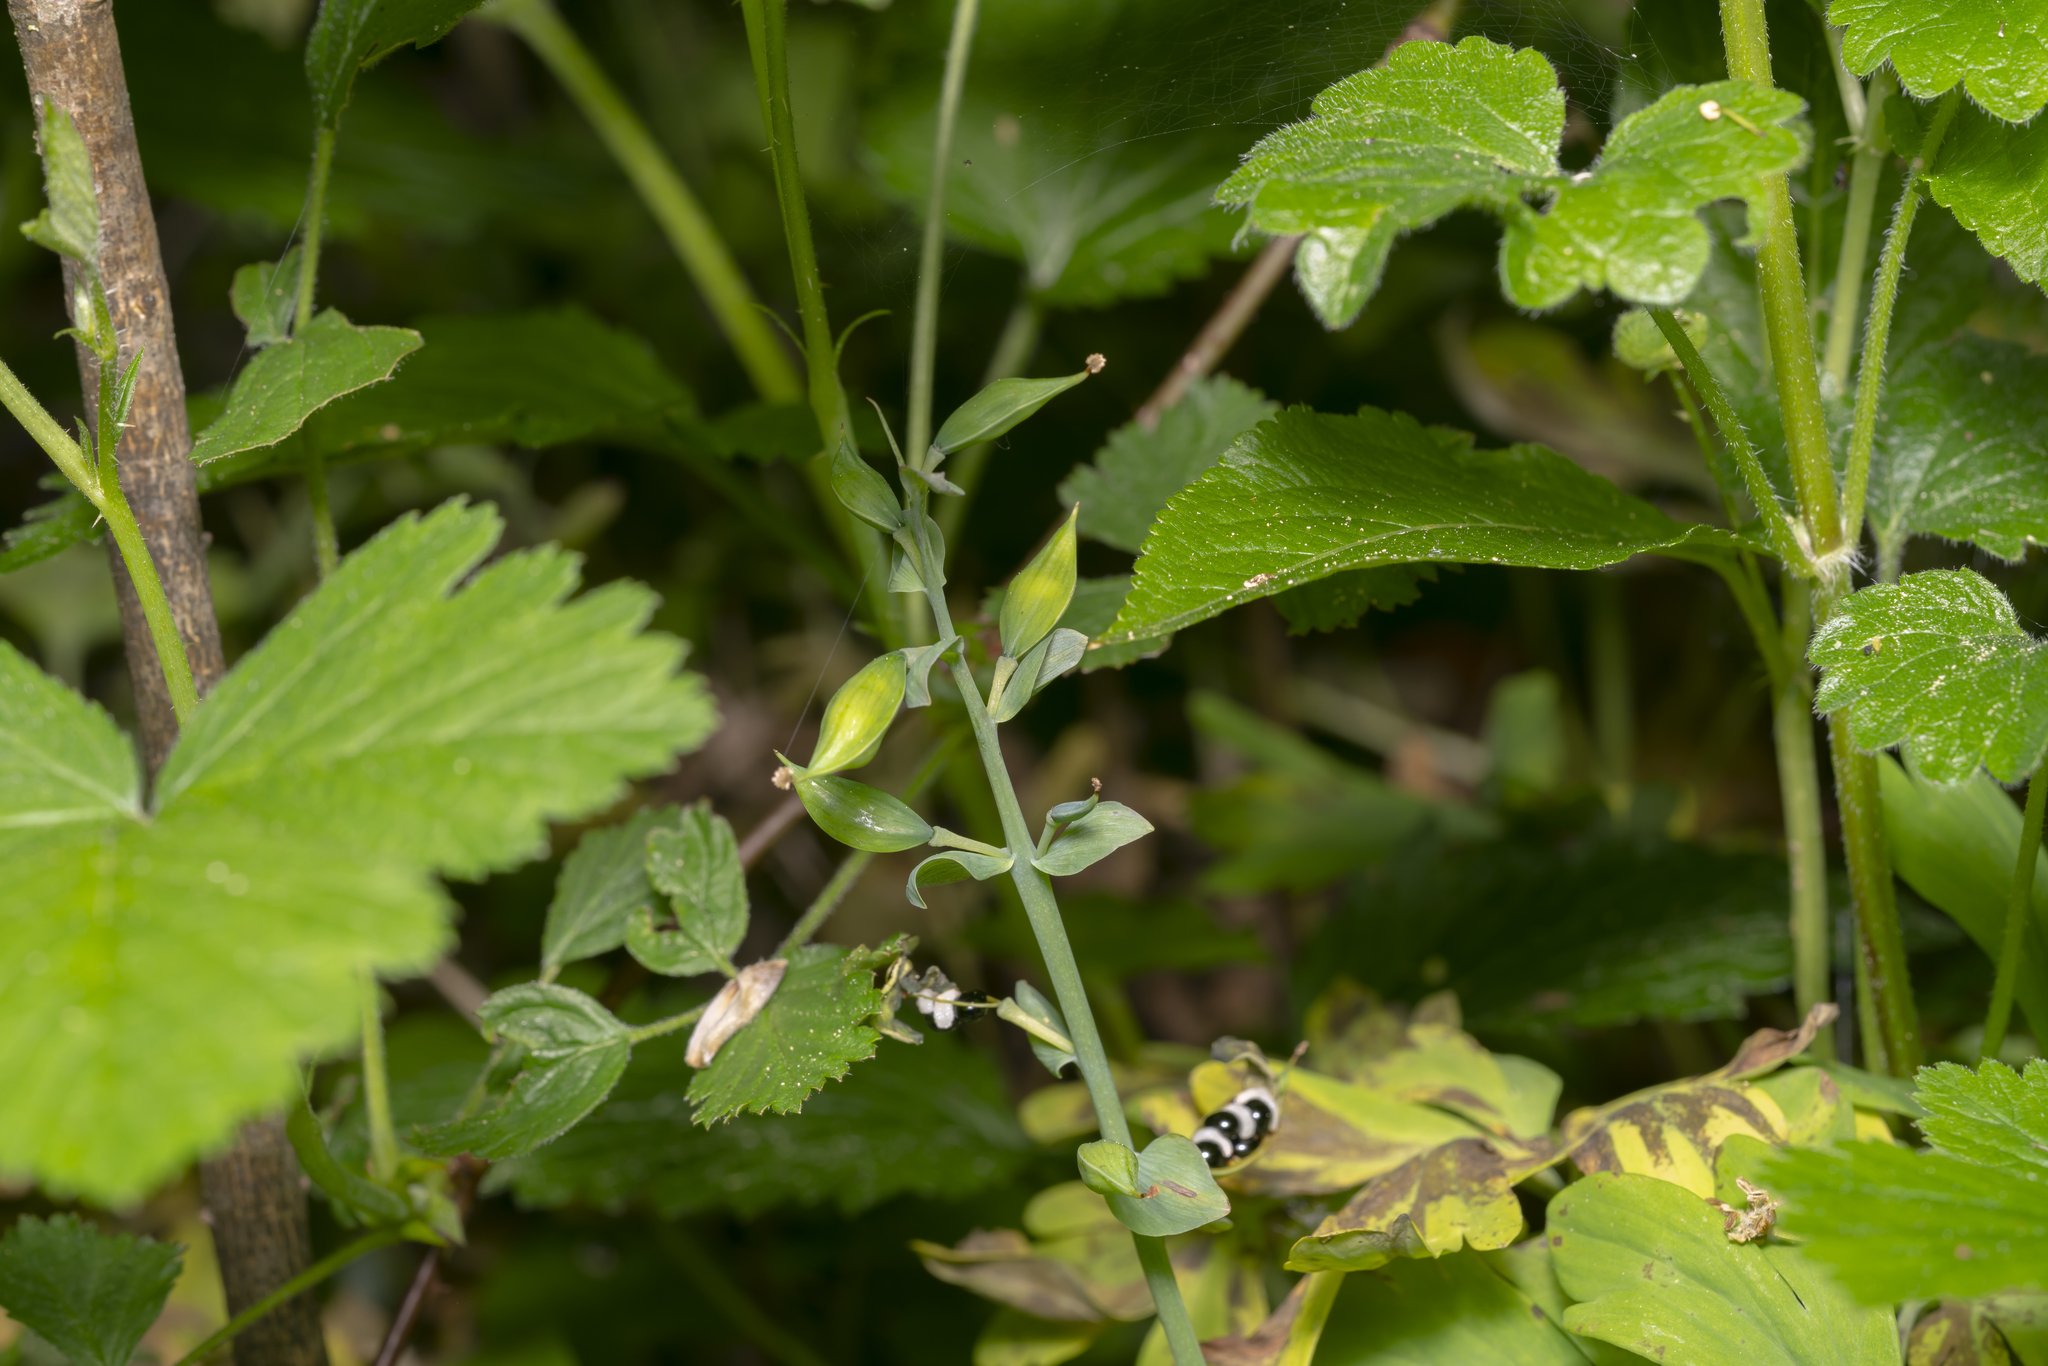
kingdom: Plantae
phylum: Tracheophyta
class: Magnoliopsida
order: Ranunculales
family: Papaveraceae
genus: Corydalis
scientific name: Corydalis cava
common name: Hollowroot
